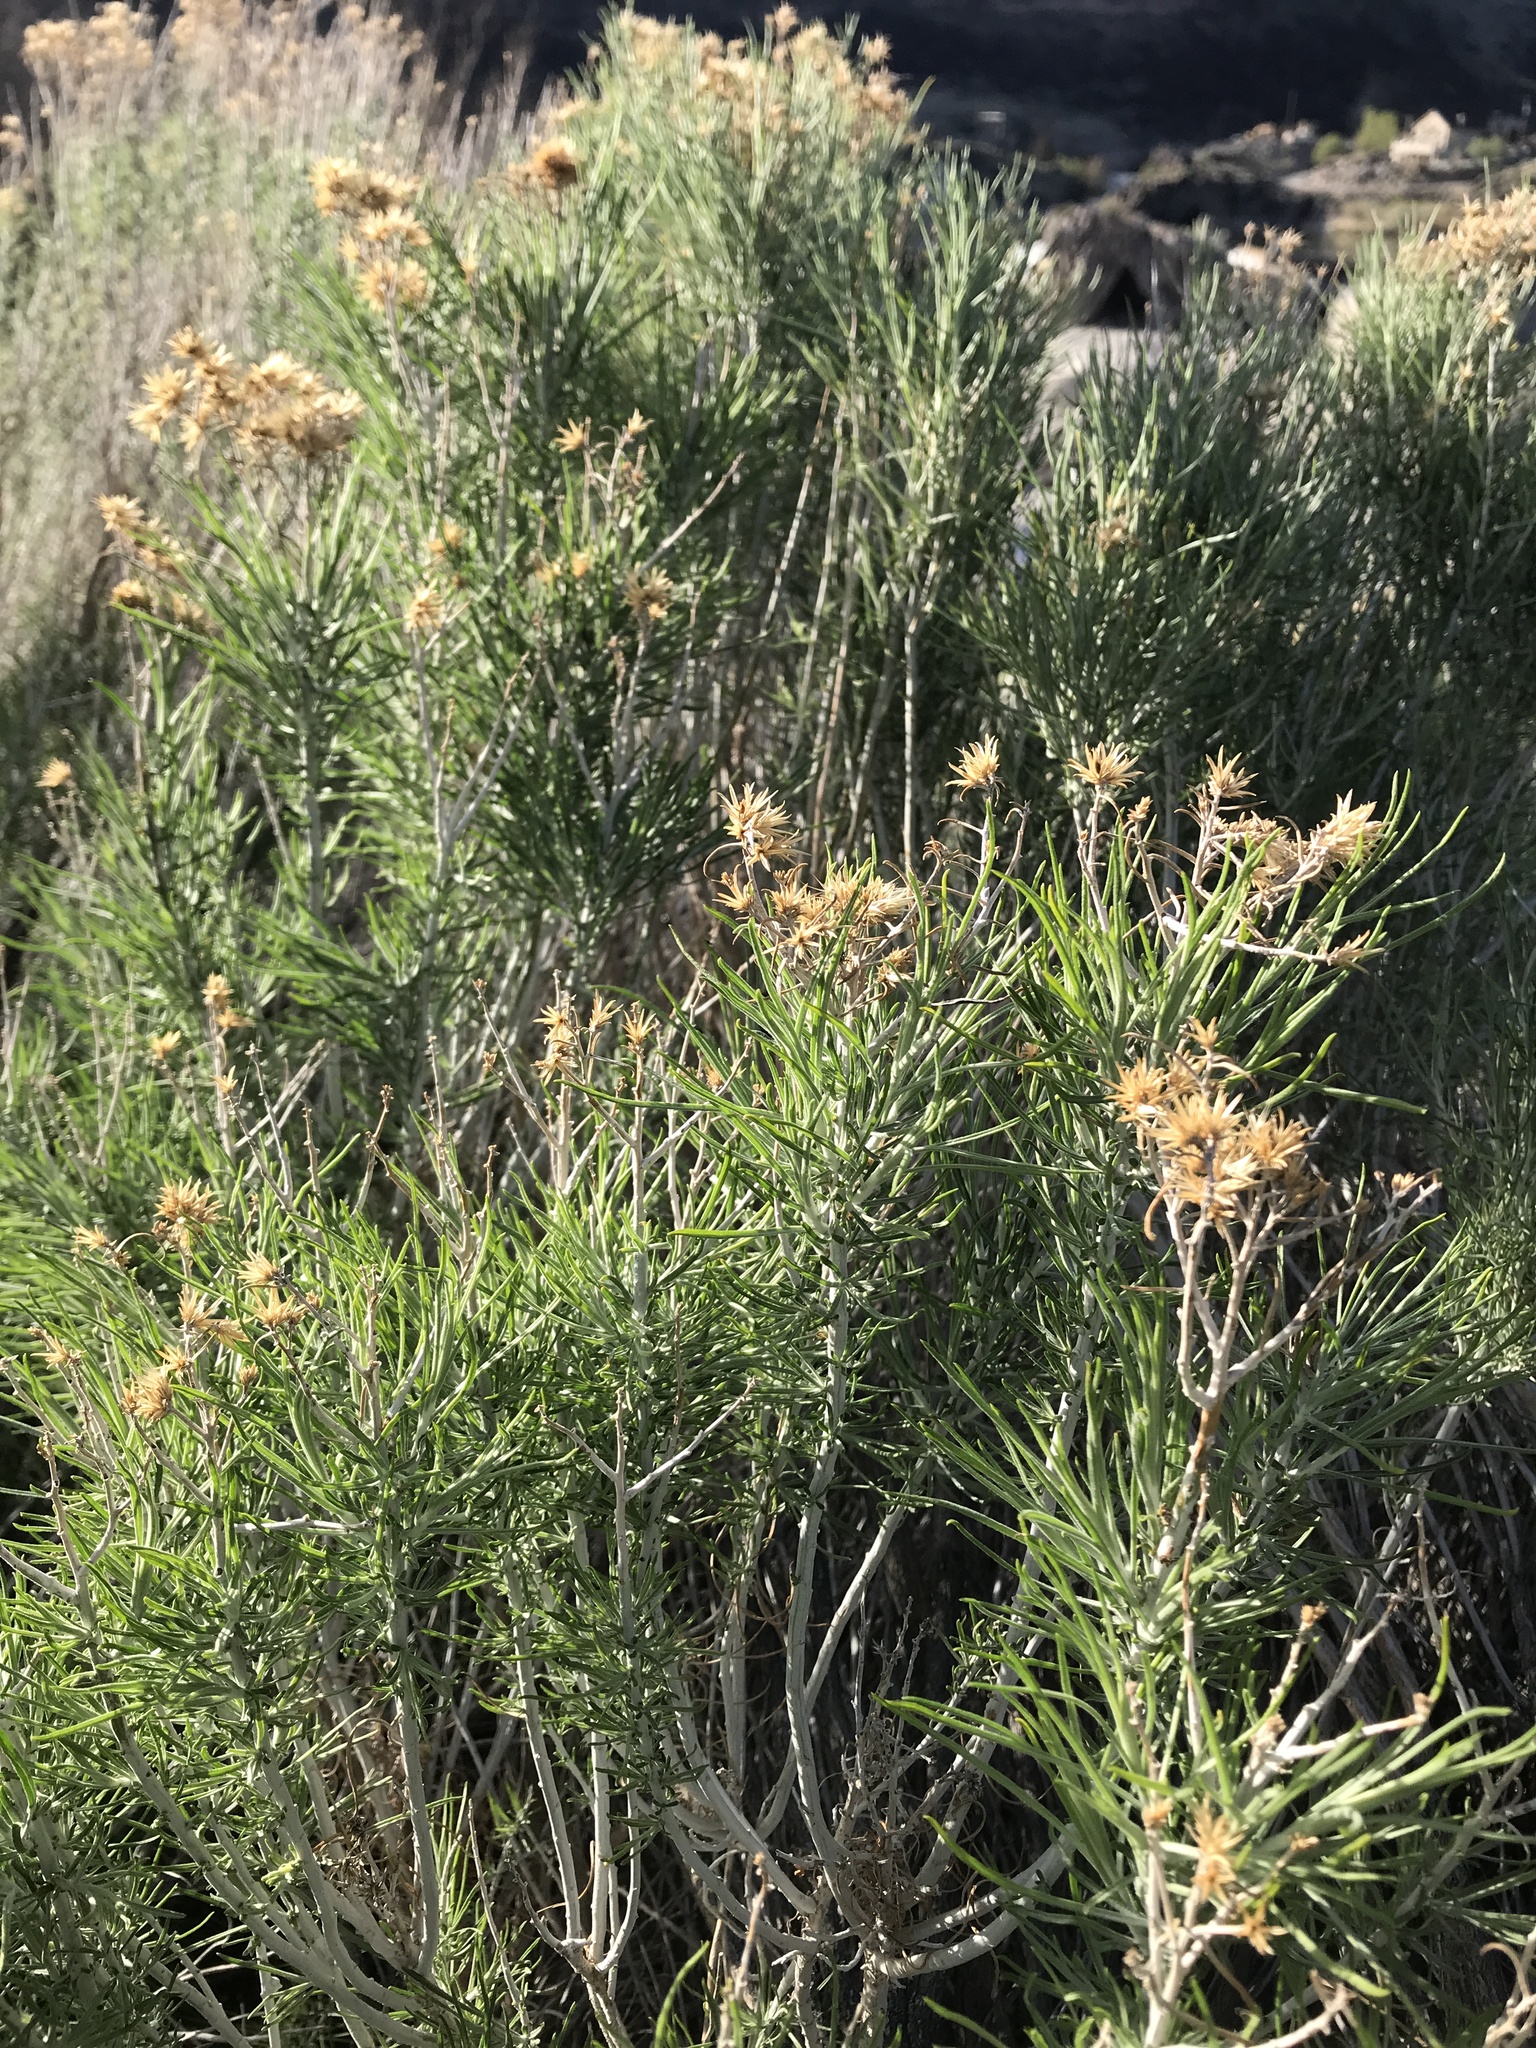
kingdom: Plantae
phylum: Tracheophyta
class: Magnoliopsida
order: Asterales
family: Asteraceae
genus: Ericameria
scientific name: Ericameria nauseosa
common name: Rubber rabbitbrush
